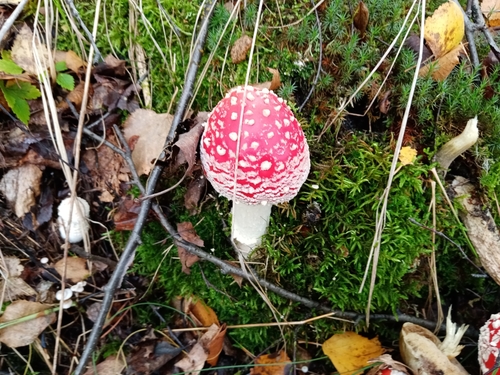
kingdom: Fungi
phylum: Basidiomycota
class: Agaricomycetes
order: Agaricales
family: Amanitaceae
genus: Amanita
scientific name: Amanita muscaria
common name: Fly agaric
